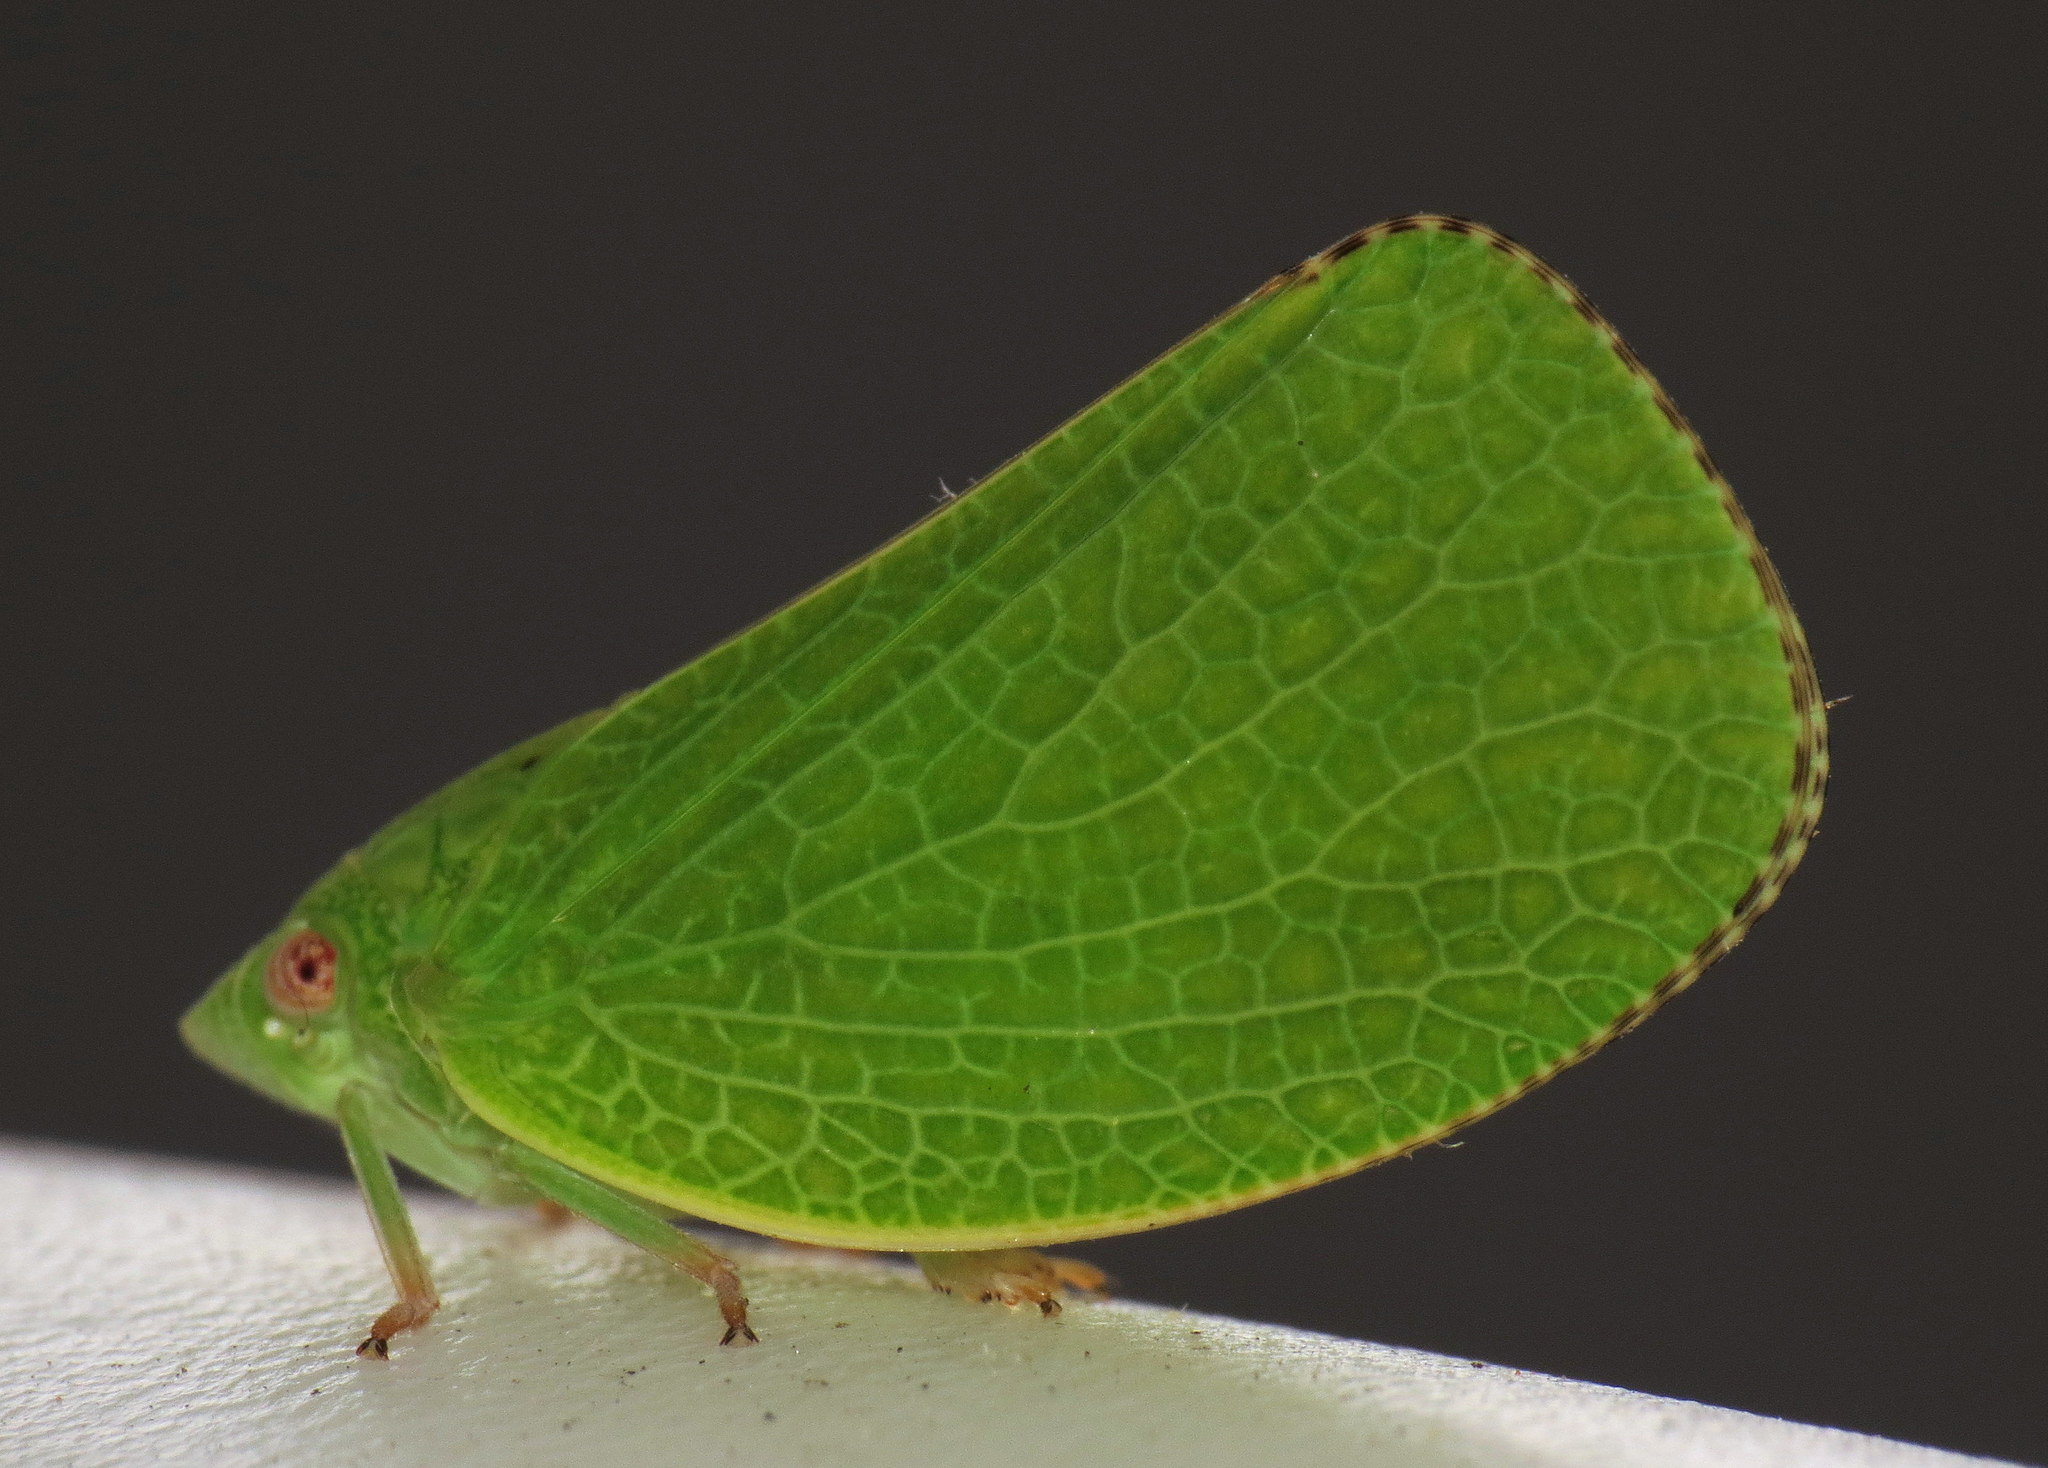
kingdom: Animalia
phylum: Arthropoda
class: Insecta
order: Hemiptera
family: Acanaloniidae
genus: Acanalonia
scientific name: Acanalonia conica
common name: Green cone-headed planthopper
